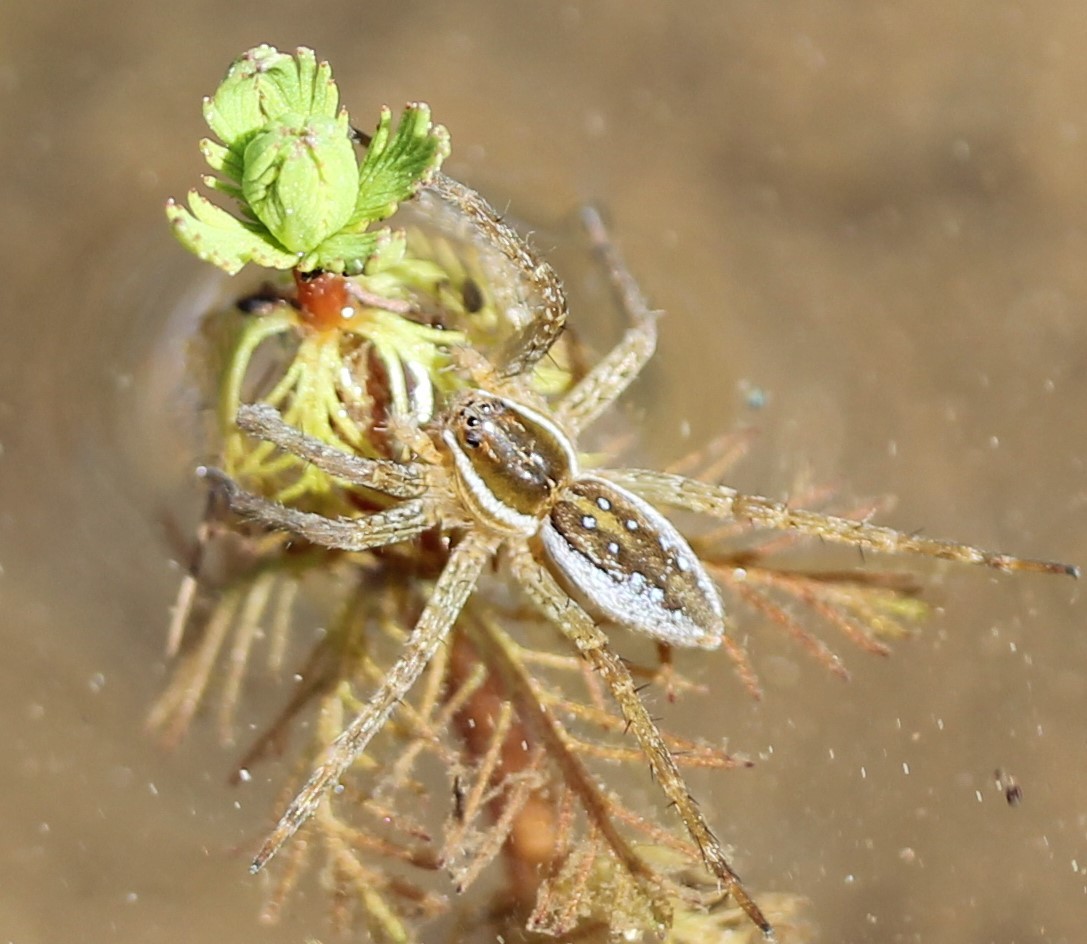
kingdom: Animalia
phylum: Arthropoda
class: Arachnida
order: Araneae
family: Pisauridae
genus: Dolomedes
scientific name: Dolomedes triton
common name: Six-spotted fishing spider
